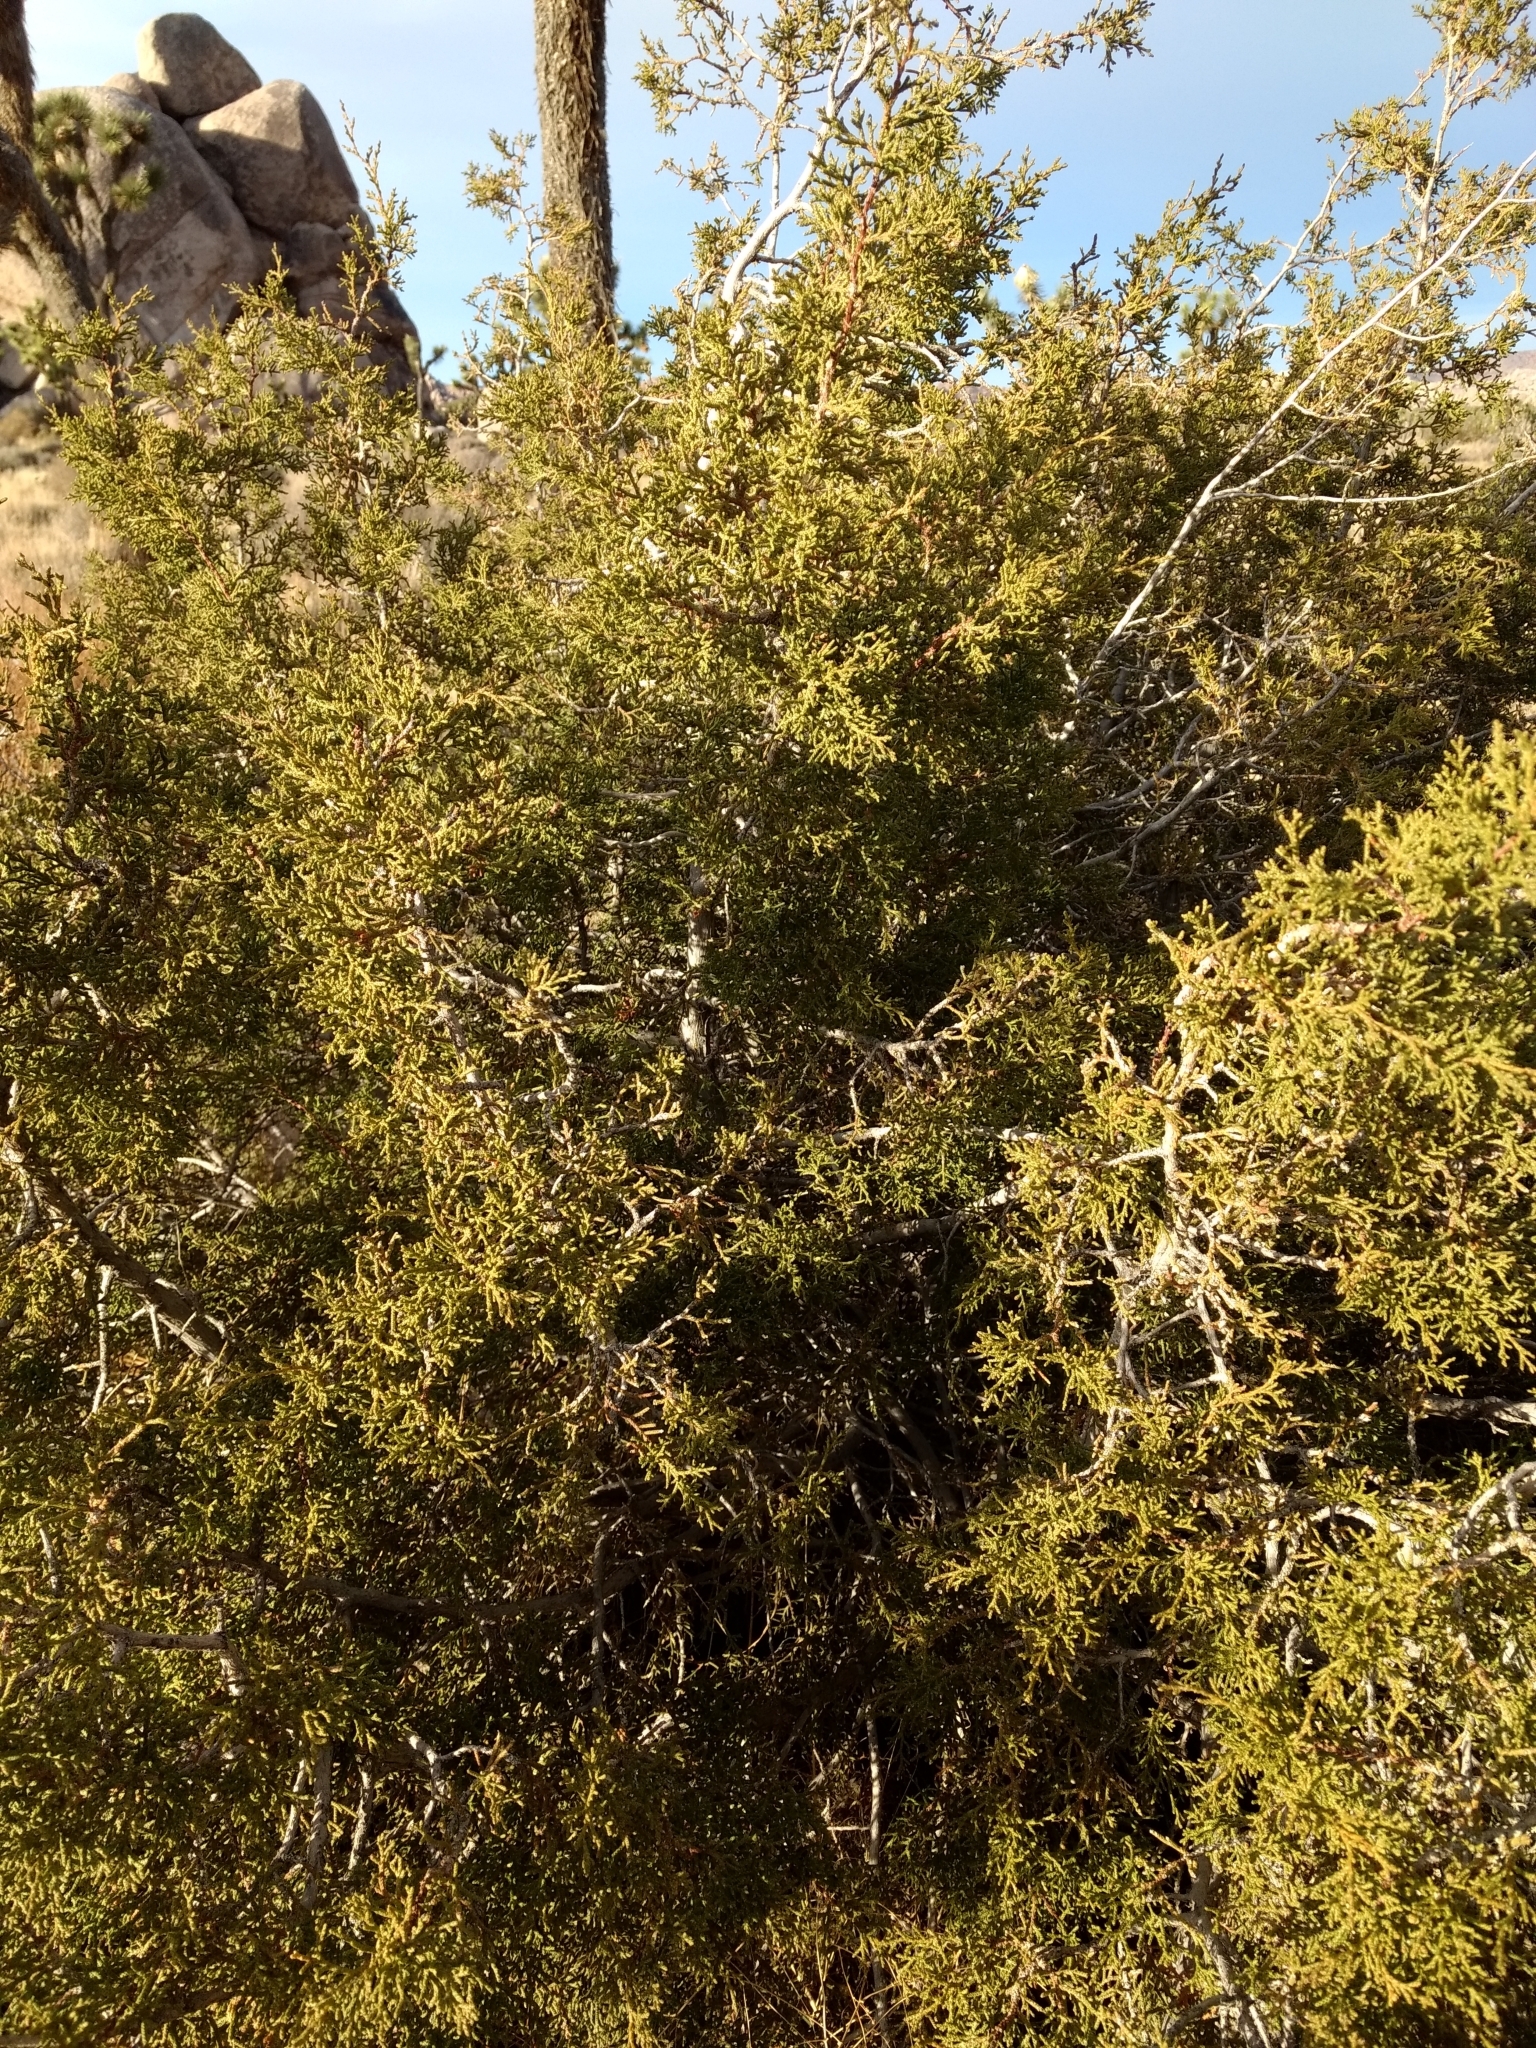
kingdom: Plantae
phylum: Tracheophyta
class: Pinopsida
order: Pinales
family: Cupressaceae
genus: Juniperus
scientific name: Juniperus californica
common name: California juniper
